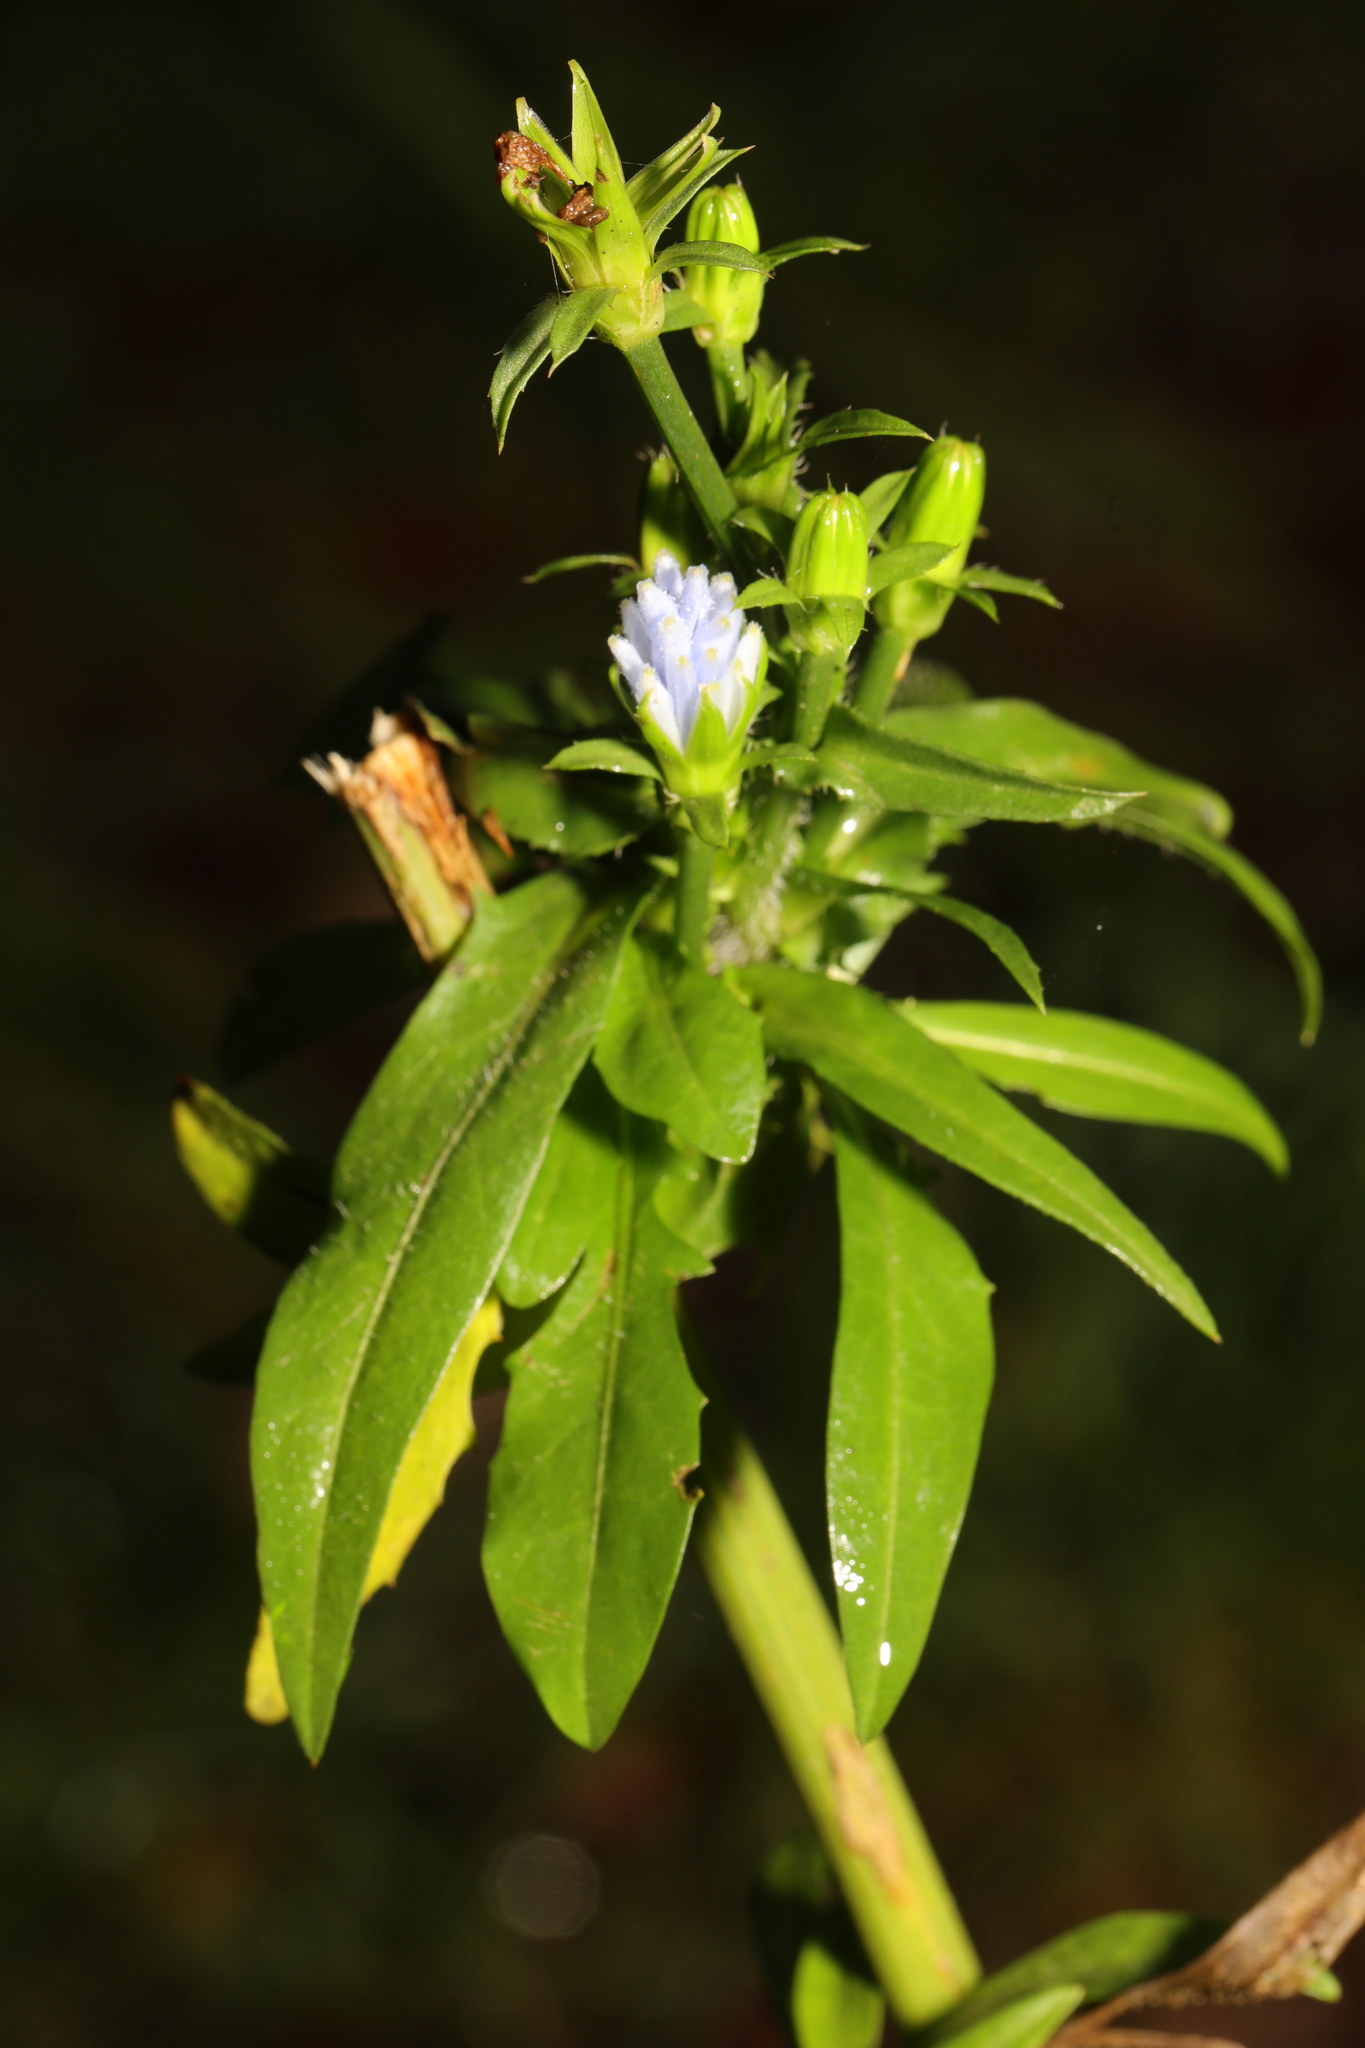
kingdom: Plantae
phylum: Tracheophyta
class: Magnoliopsida
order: Asterales
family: Asteraceae
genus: Cichorium
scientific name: Cichorium intybus
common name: Chicory
